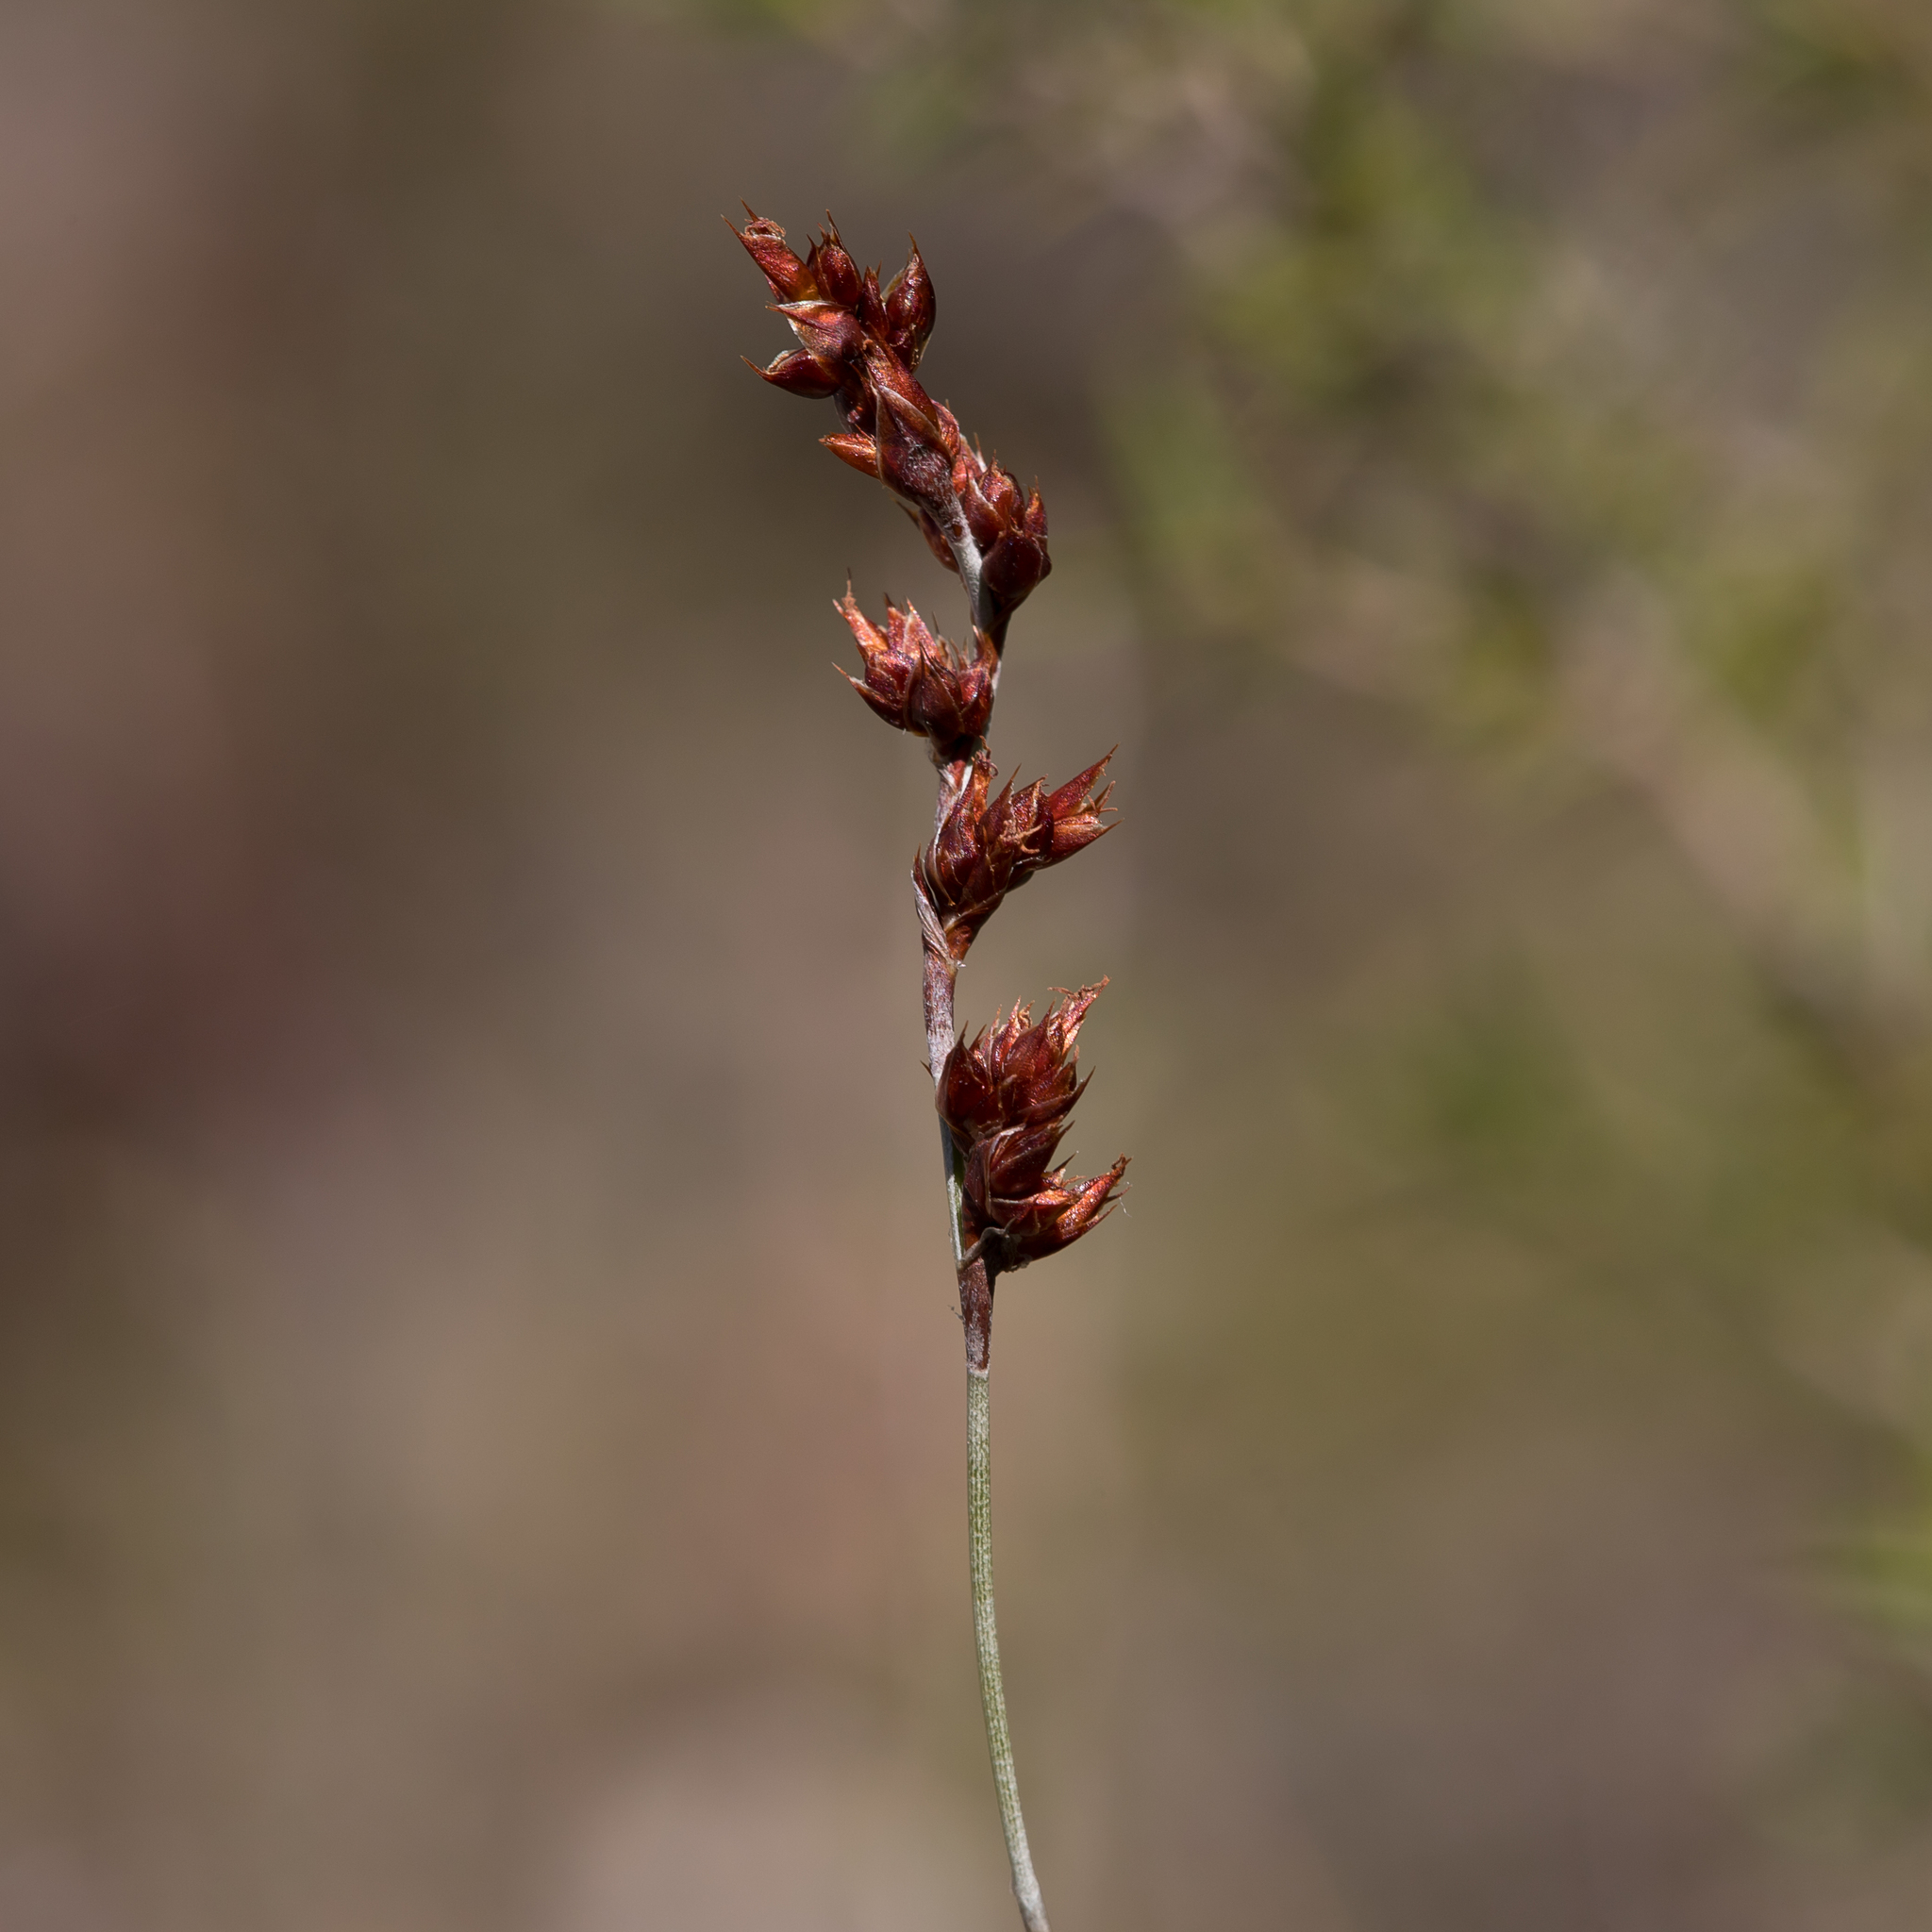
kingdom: Plantae
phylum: Tracheophyta
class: Liliopsida
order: Poales
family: Restionaceae
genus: Apodasmia
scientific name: Apodasmia brownii
